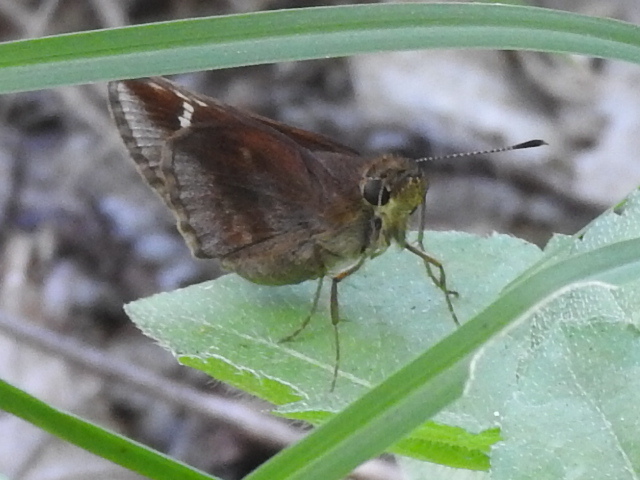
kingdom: Animalia
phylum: Arthropoda
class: Insecta
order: Lepidoptera
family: Hesperiidae
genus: Lerema
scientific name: Lerema accius
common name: Clouded skipper
